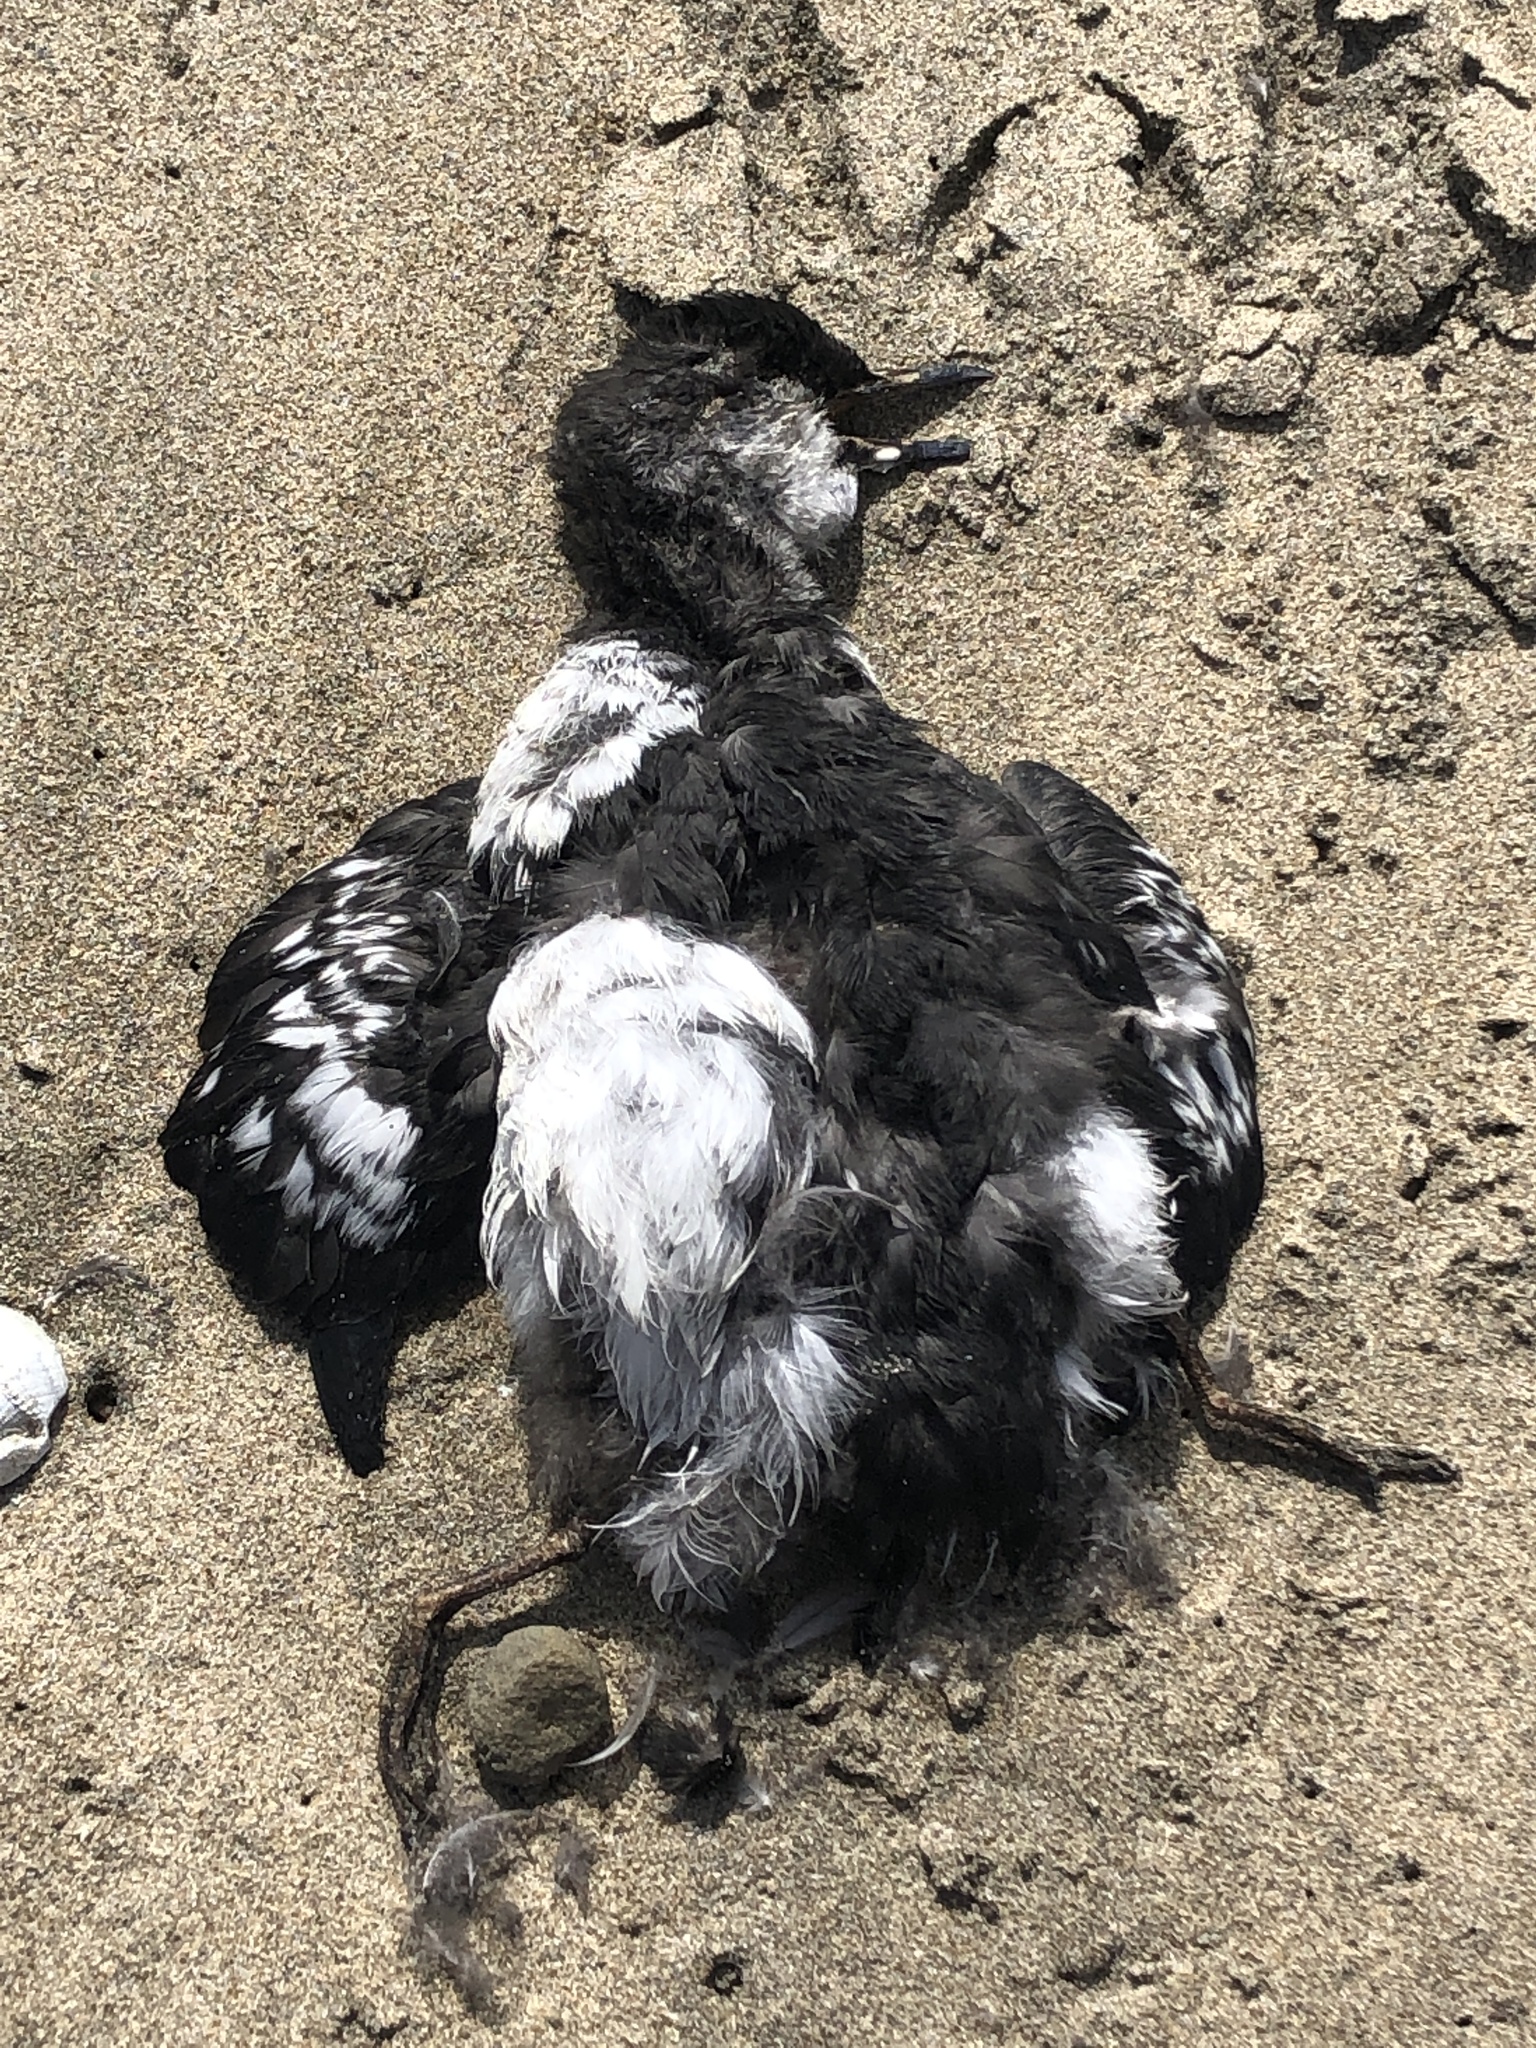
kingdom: Animalia
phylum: Chordata
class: Aves
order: Charadriiformes
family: Alcidae
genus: Cepphus
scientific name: Cepphus columba
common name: Pigeon guillemot
